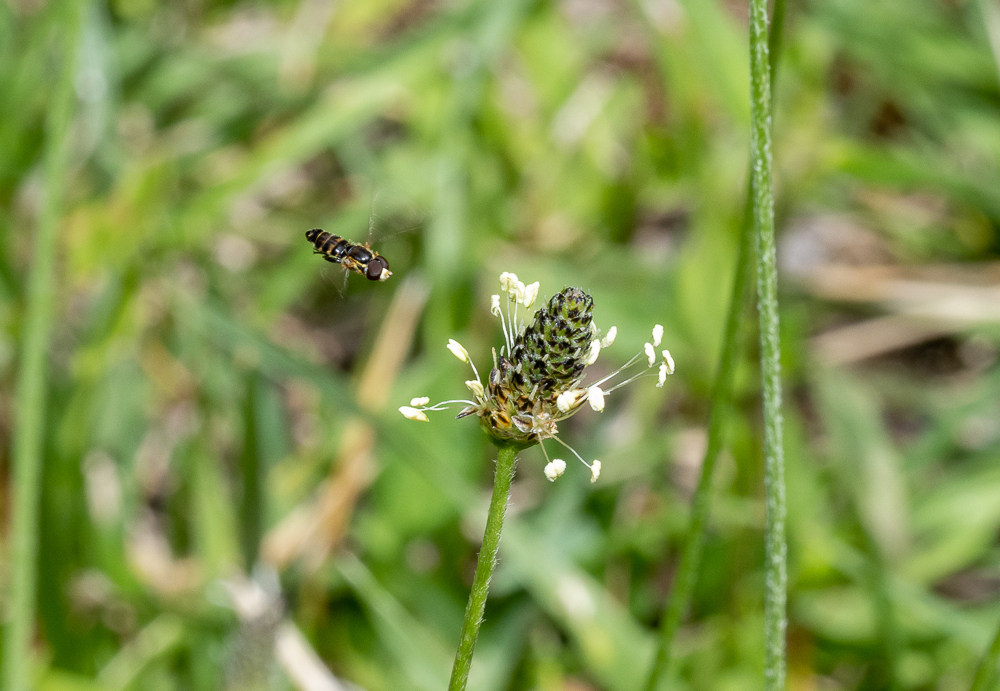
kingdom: Animalia
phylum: Arthropoda
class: Insecta
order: Diptera
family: Syrphidae
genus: Toxomerus
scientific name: Toxomerus occidentalis
